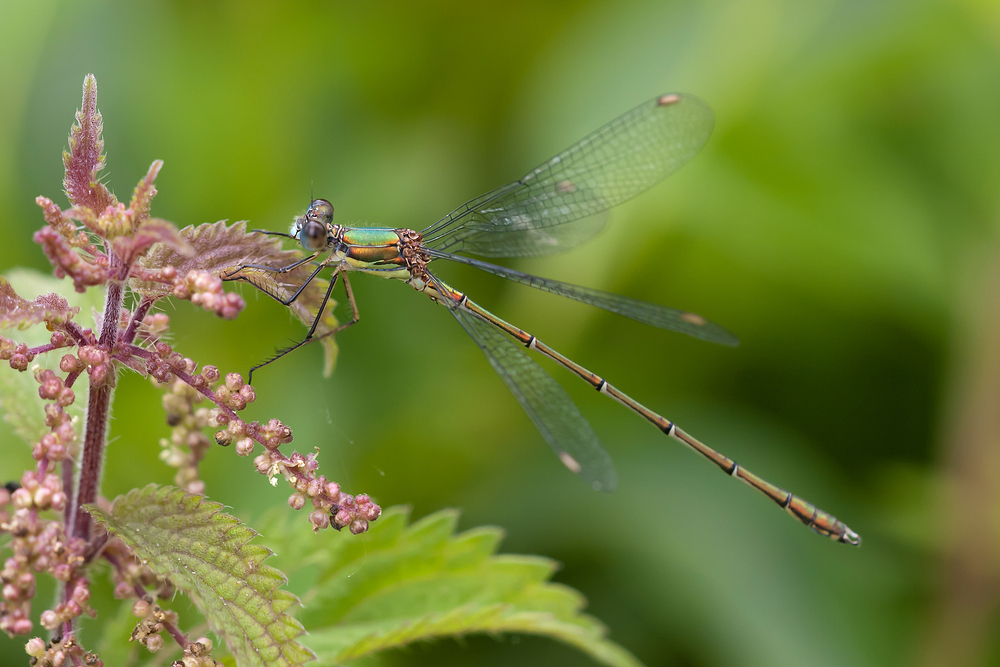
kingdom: Animalia
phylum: Arthropoda
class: Insecta
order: Odonata
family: Lestidae
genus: Chalcolestes
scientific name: Chalcolestes viridis
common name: Green emerald damselfly
